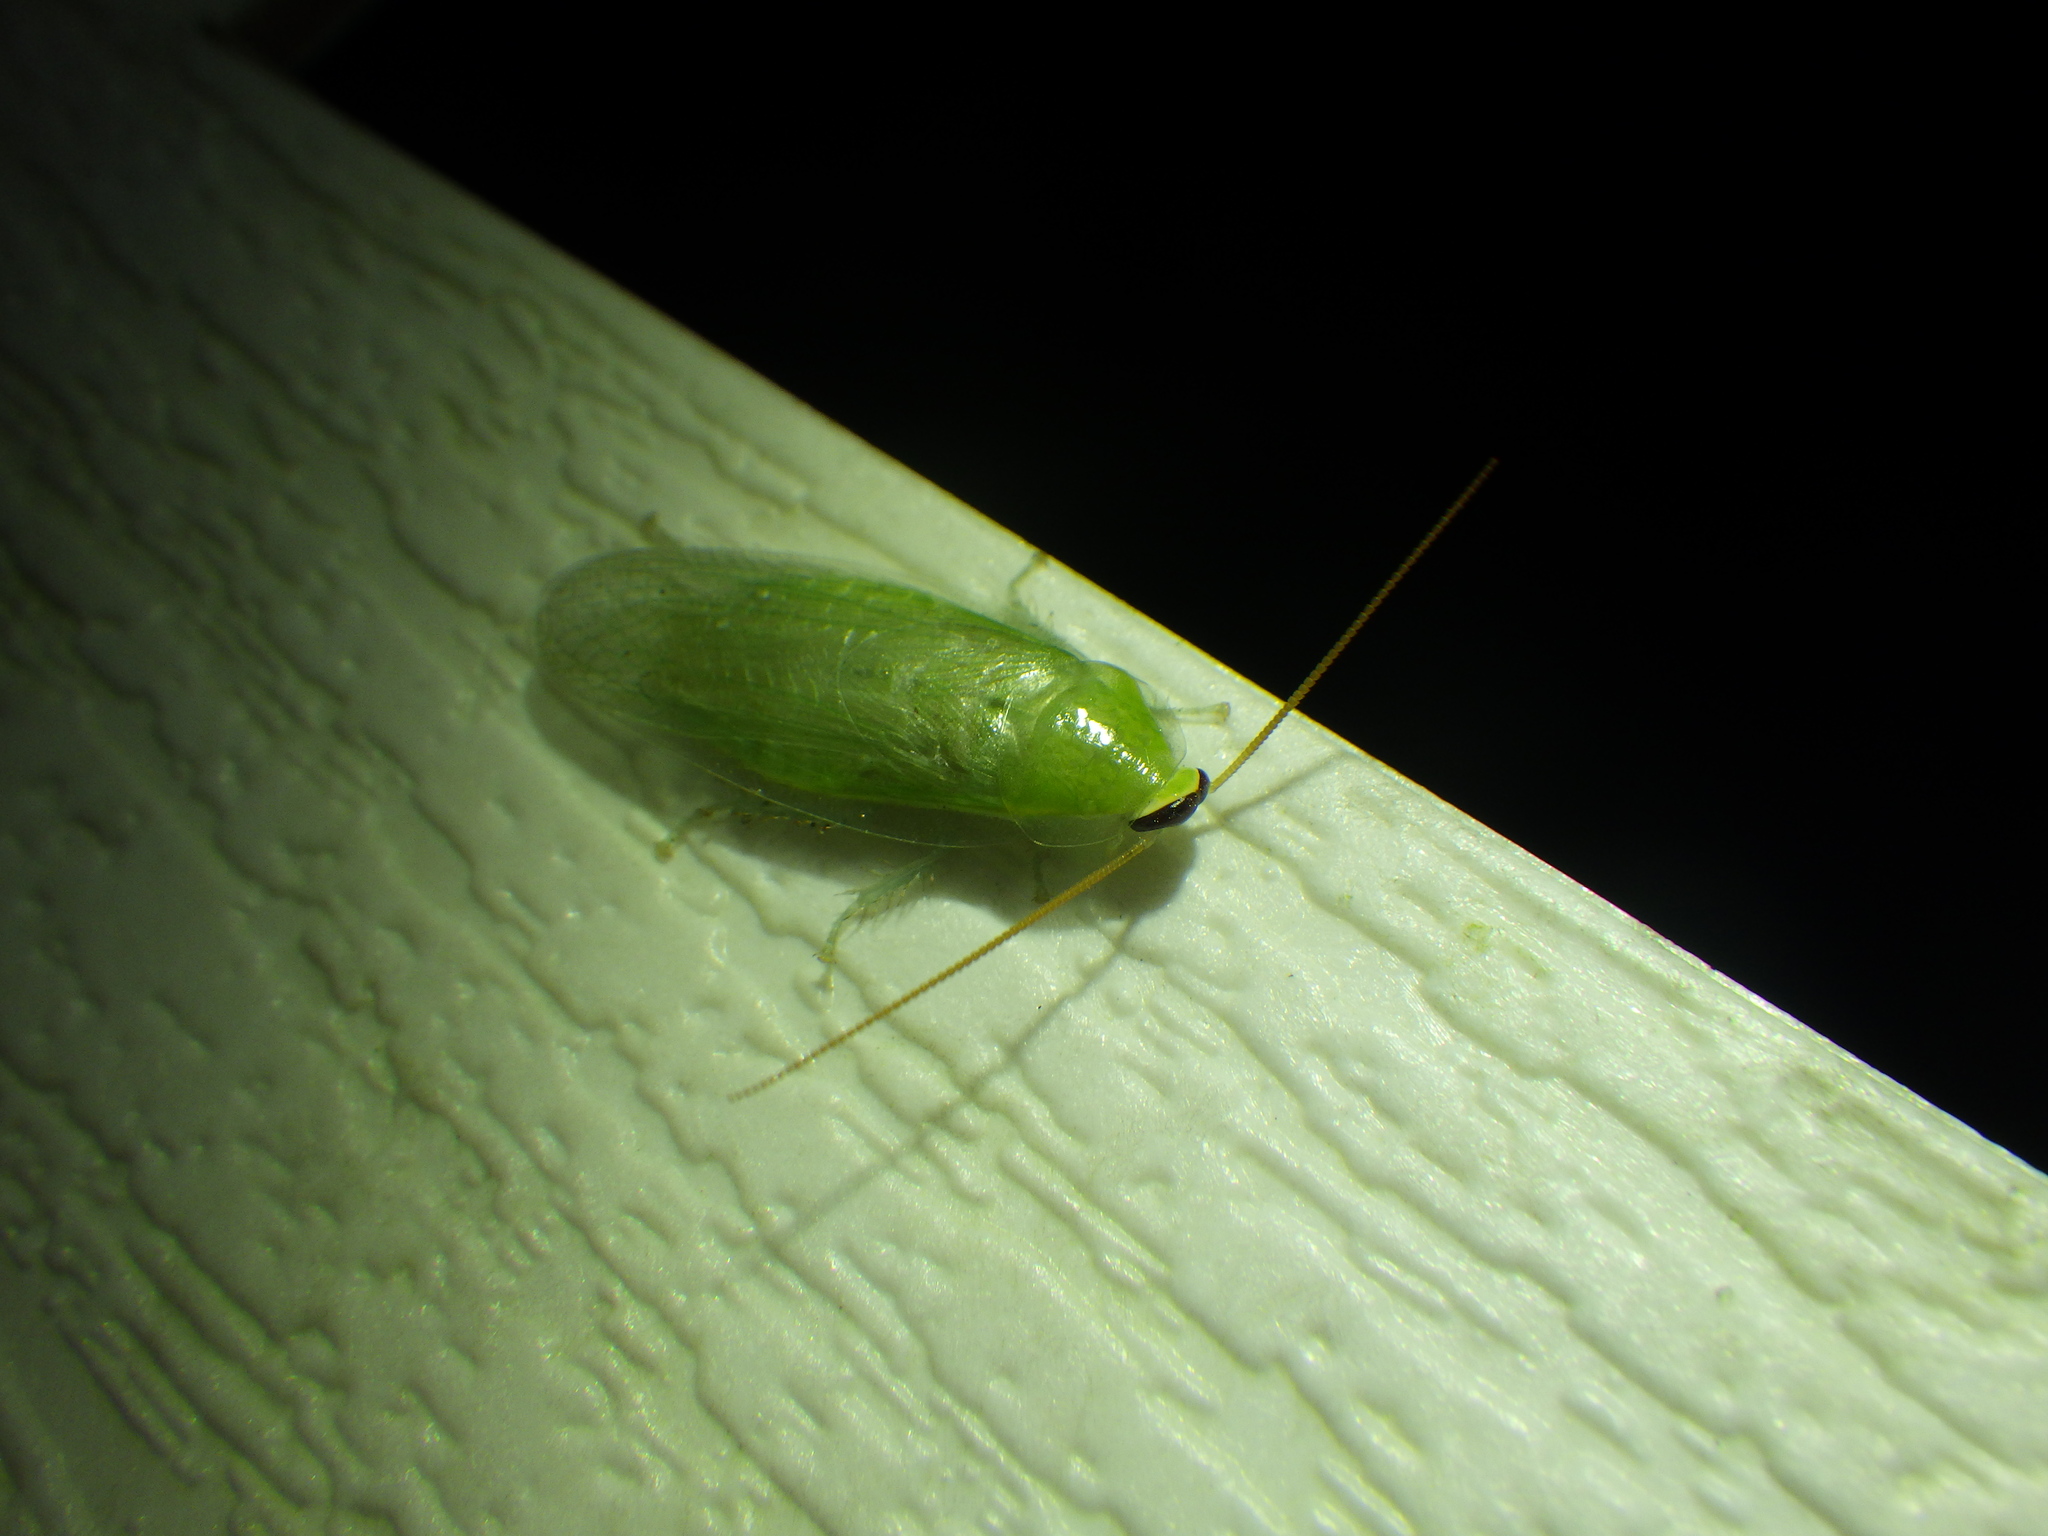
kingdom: Animalia
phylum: Arthropoda
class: Insecta
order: Blattodea
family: Blaberidae
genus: Panchlora
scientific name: Panchlora nivea
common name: Cuban cockroach
